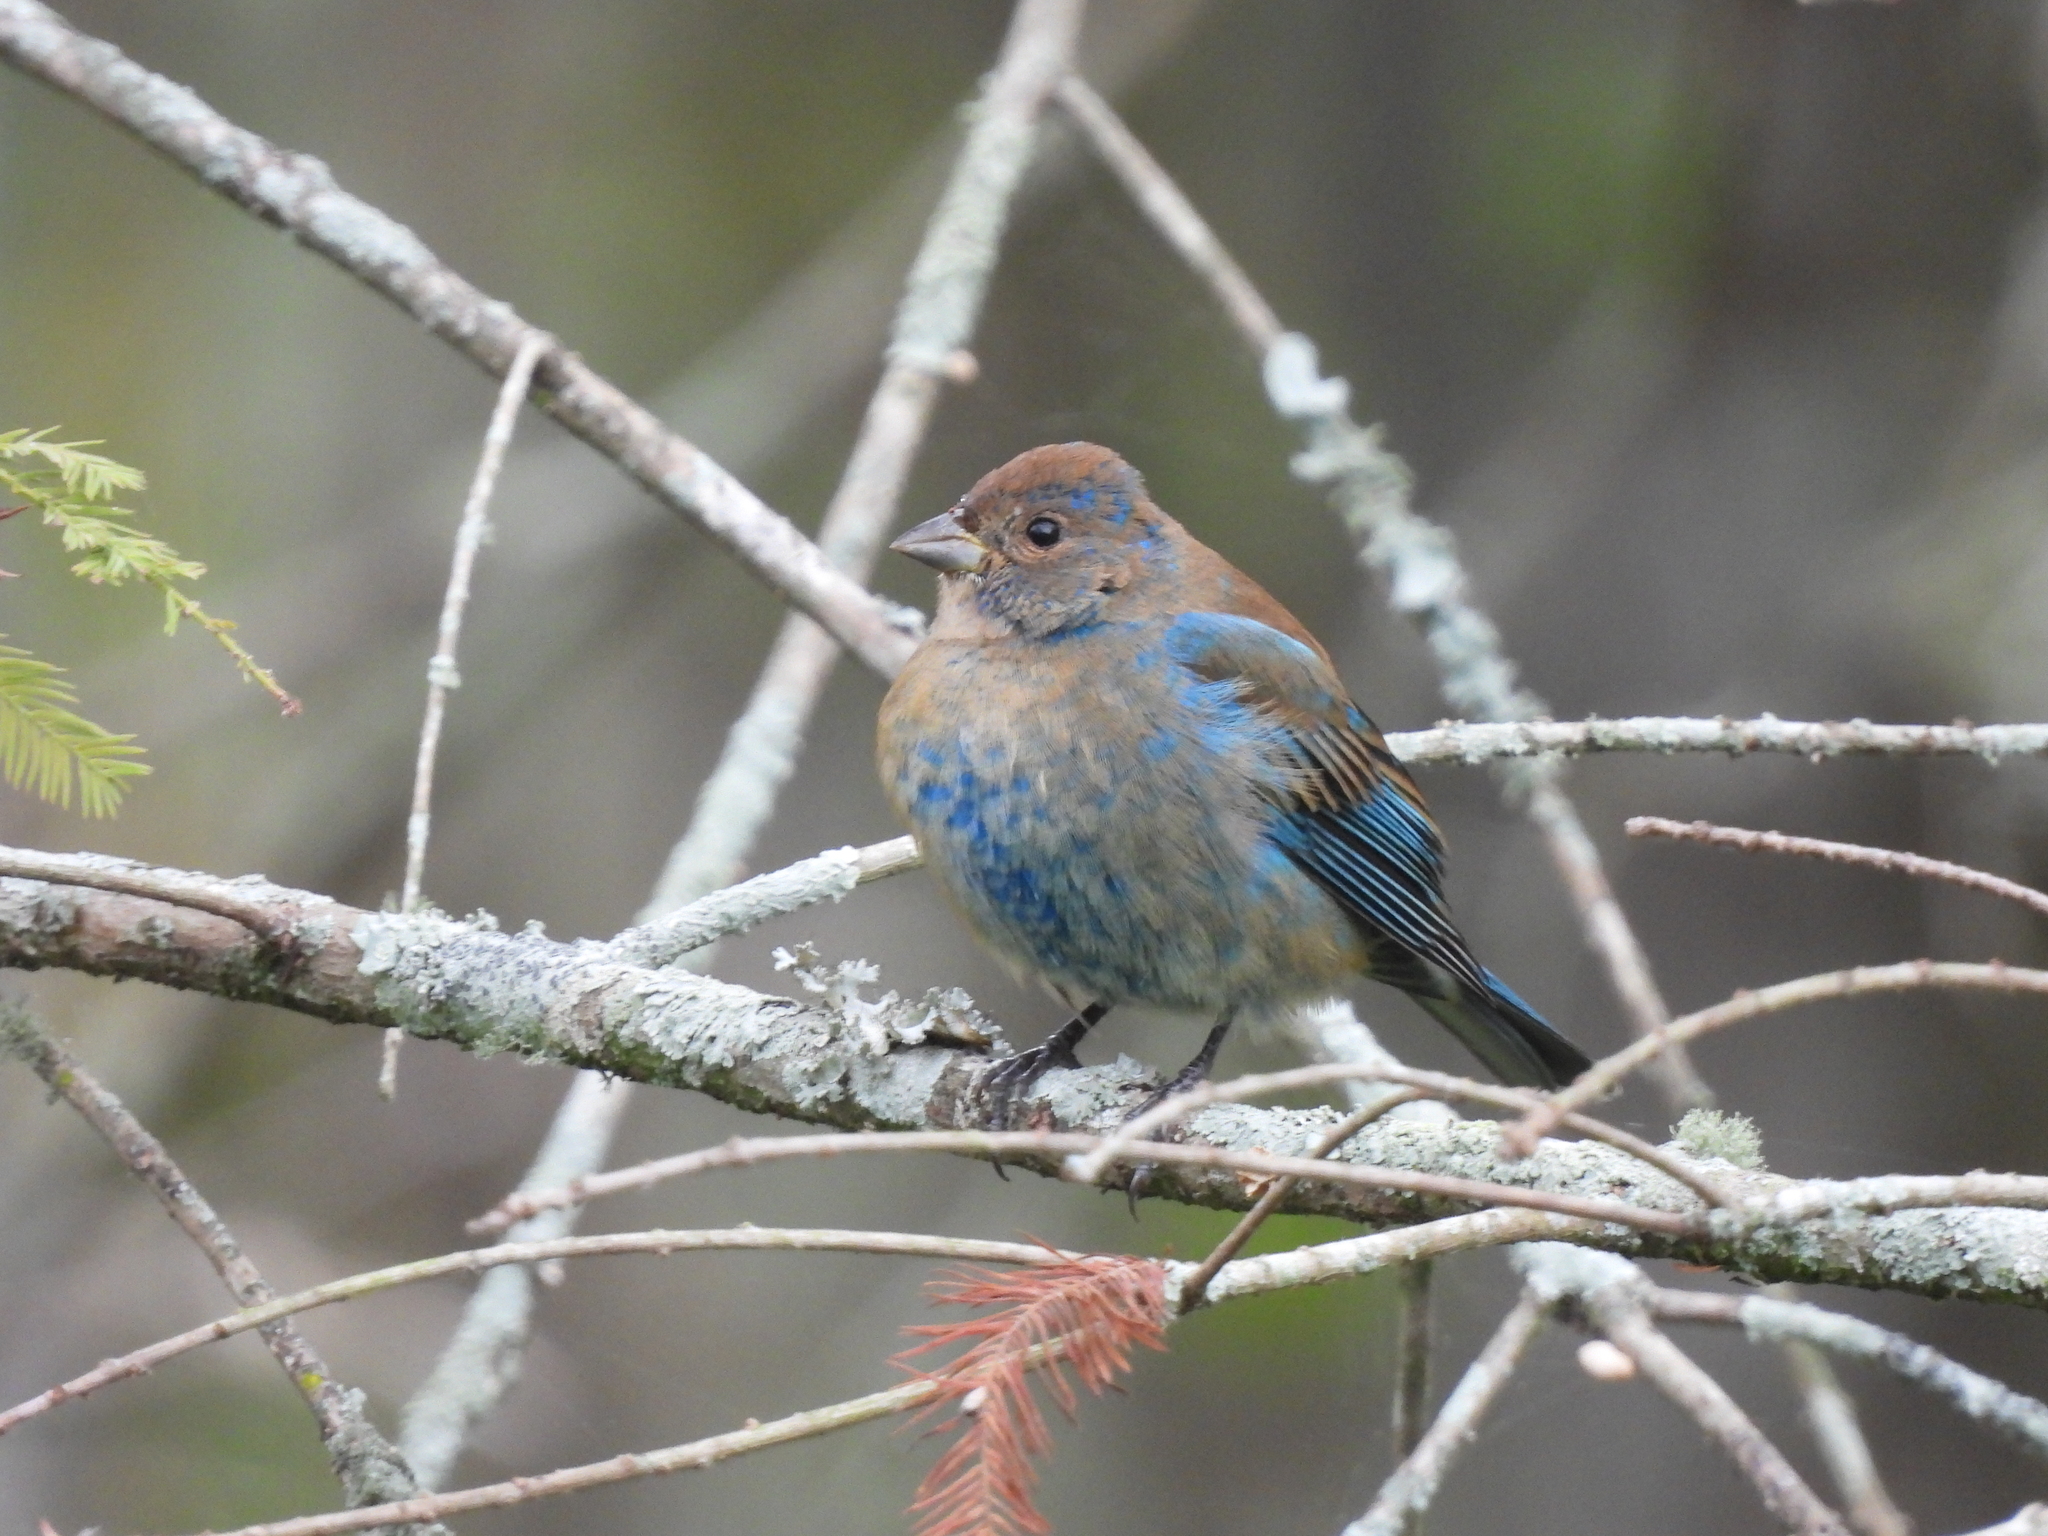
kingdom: Animalia
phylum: Chordata
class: Aves
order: Passeriformes
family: Cardinalidae
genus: Passerina
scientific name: Passerina cyanea
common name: Indigo bunting
